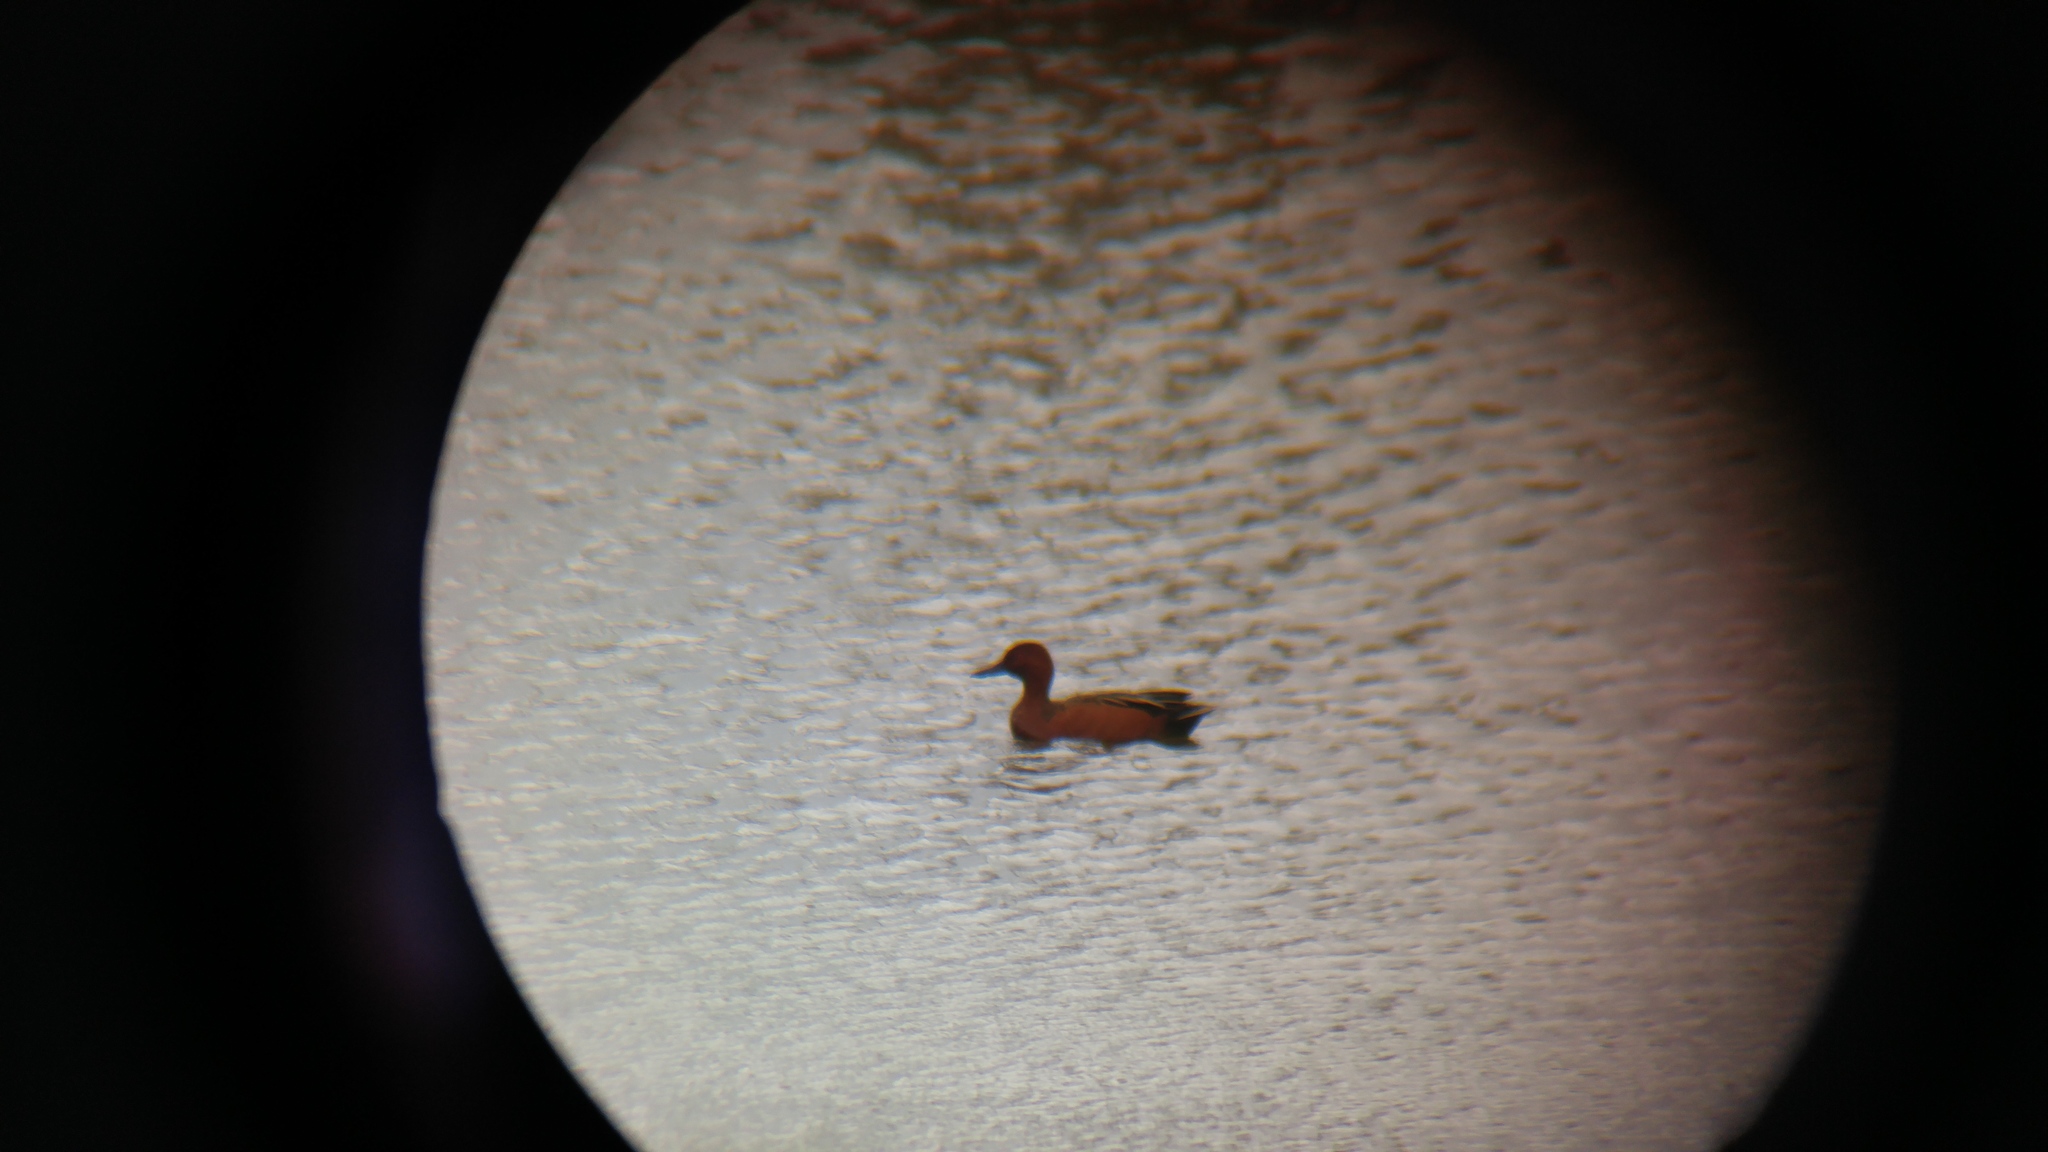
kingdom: Animalia
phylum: Chordata
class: Aves
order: Anseriformes
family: Anatidae
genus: Spatula
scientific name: Spatula cyanoptera
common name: Cinnamon teal
